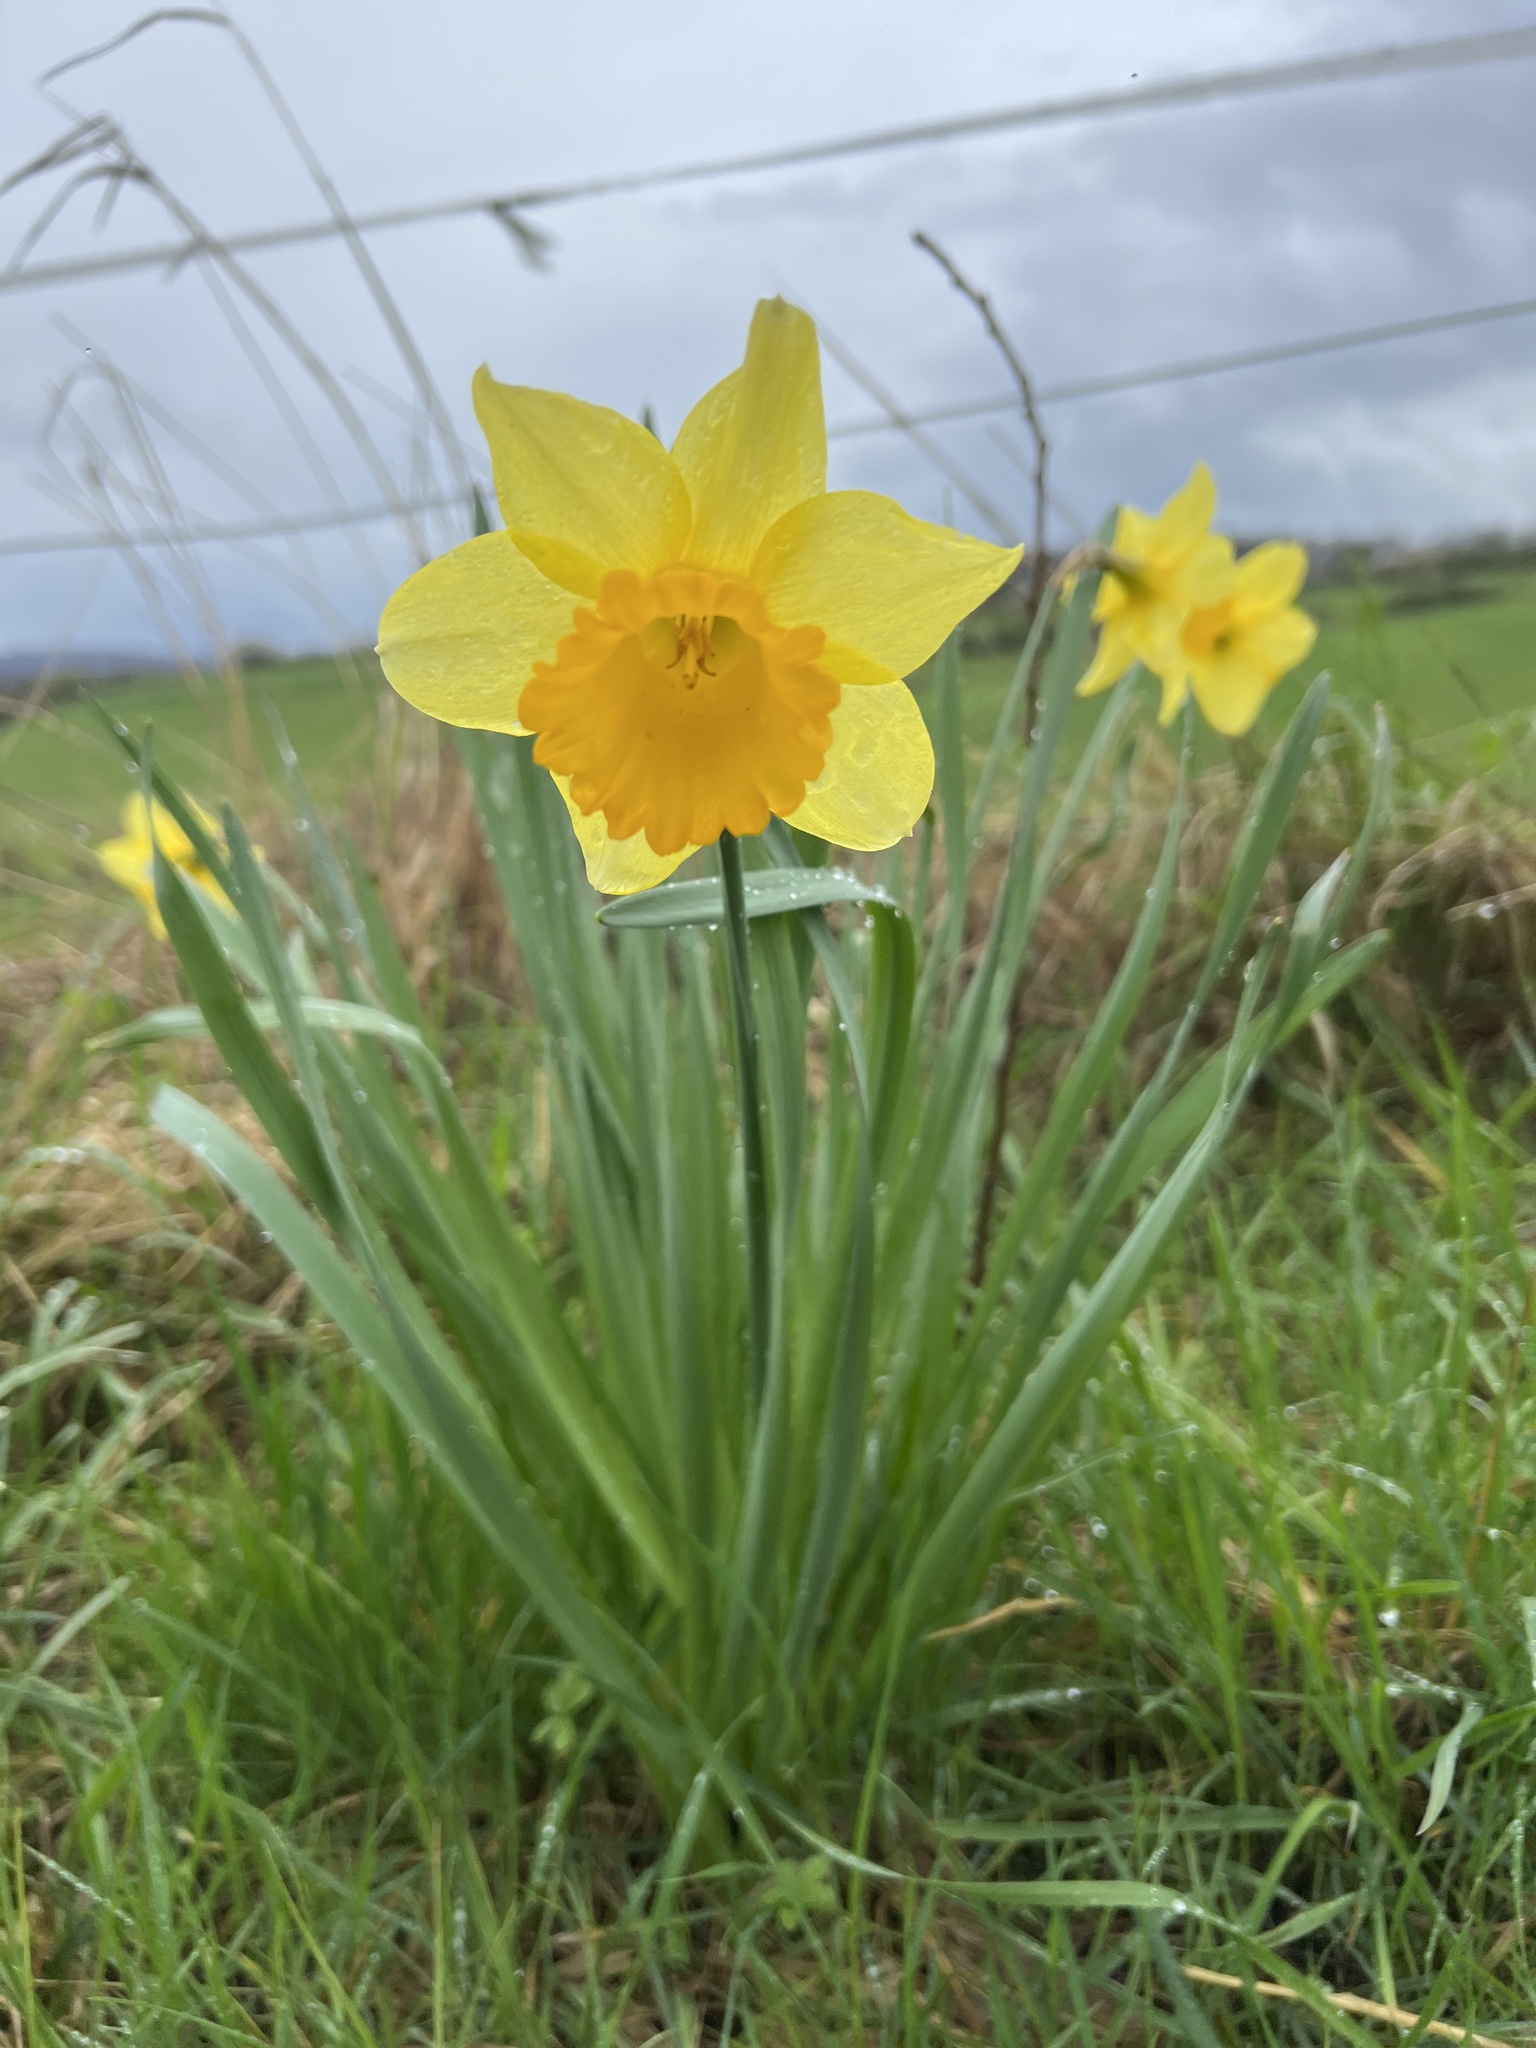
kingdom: Plantae
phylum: Tracheophyta
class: Liliopsida
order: Asparagales
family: Amaryllidaceae
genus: Narcissus
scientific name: Narcissus pseudonarcissus
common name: Daffodil
